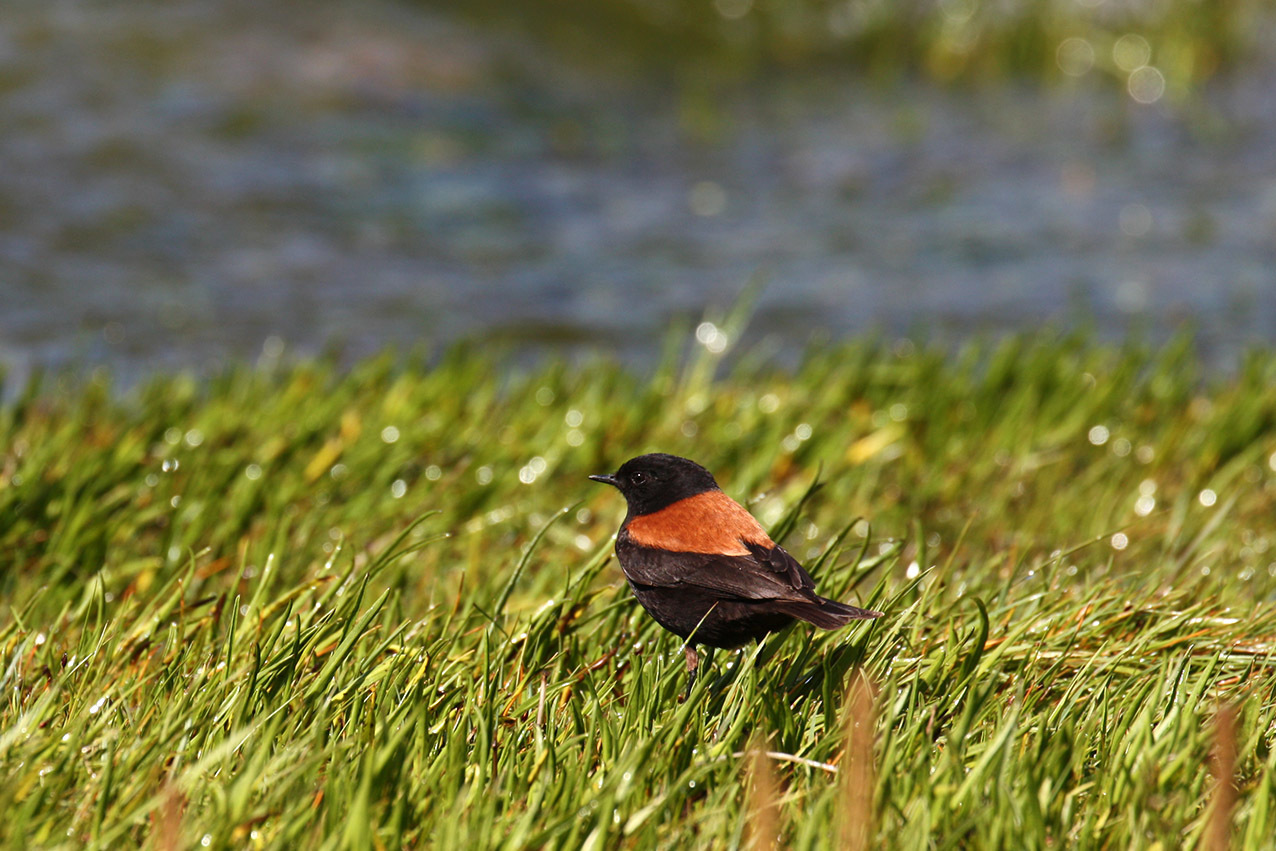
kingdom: Animalia
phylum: Chordata
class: Aves
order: Passeriformes
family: Tyrannidae
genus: Lessonia
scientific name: Lessonia rufa
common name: Austral negrito
